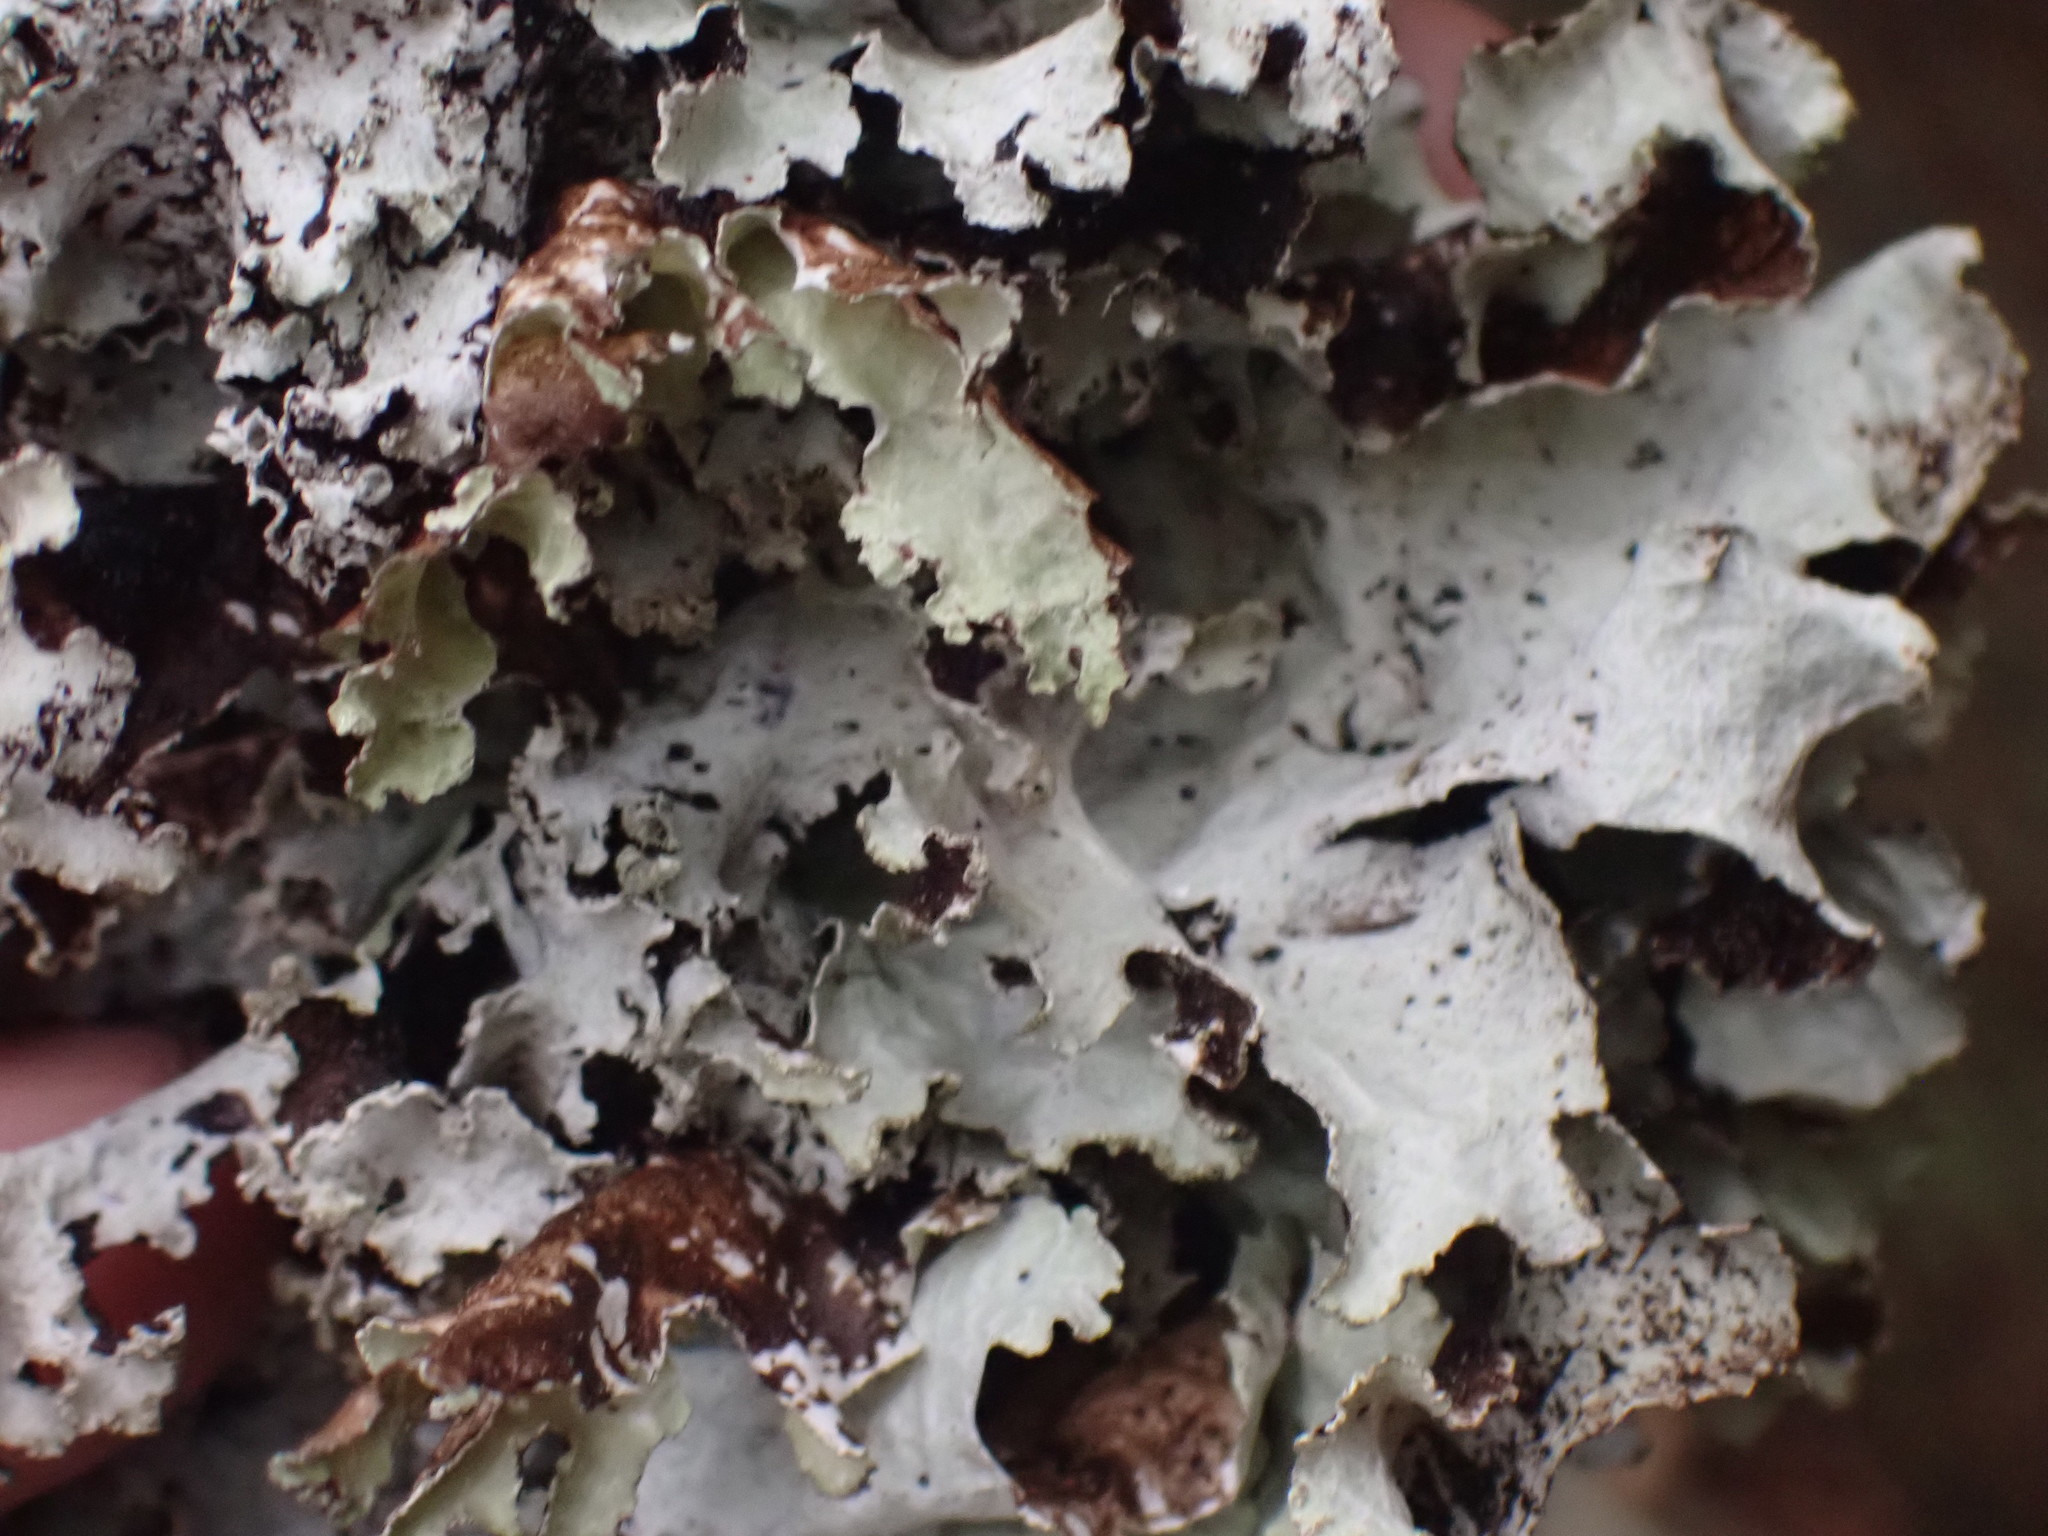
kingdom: Fungi
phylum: Ascomycota
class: Lecanoromycetes
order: Lecanorales
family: Parmeliaceae
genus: Platismatia
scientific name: Platismatia glauca
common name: Varied rag lichen
